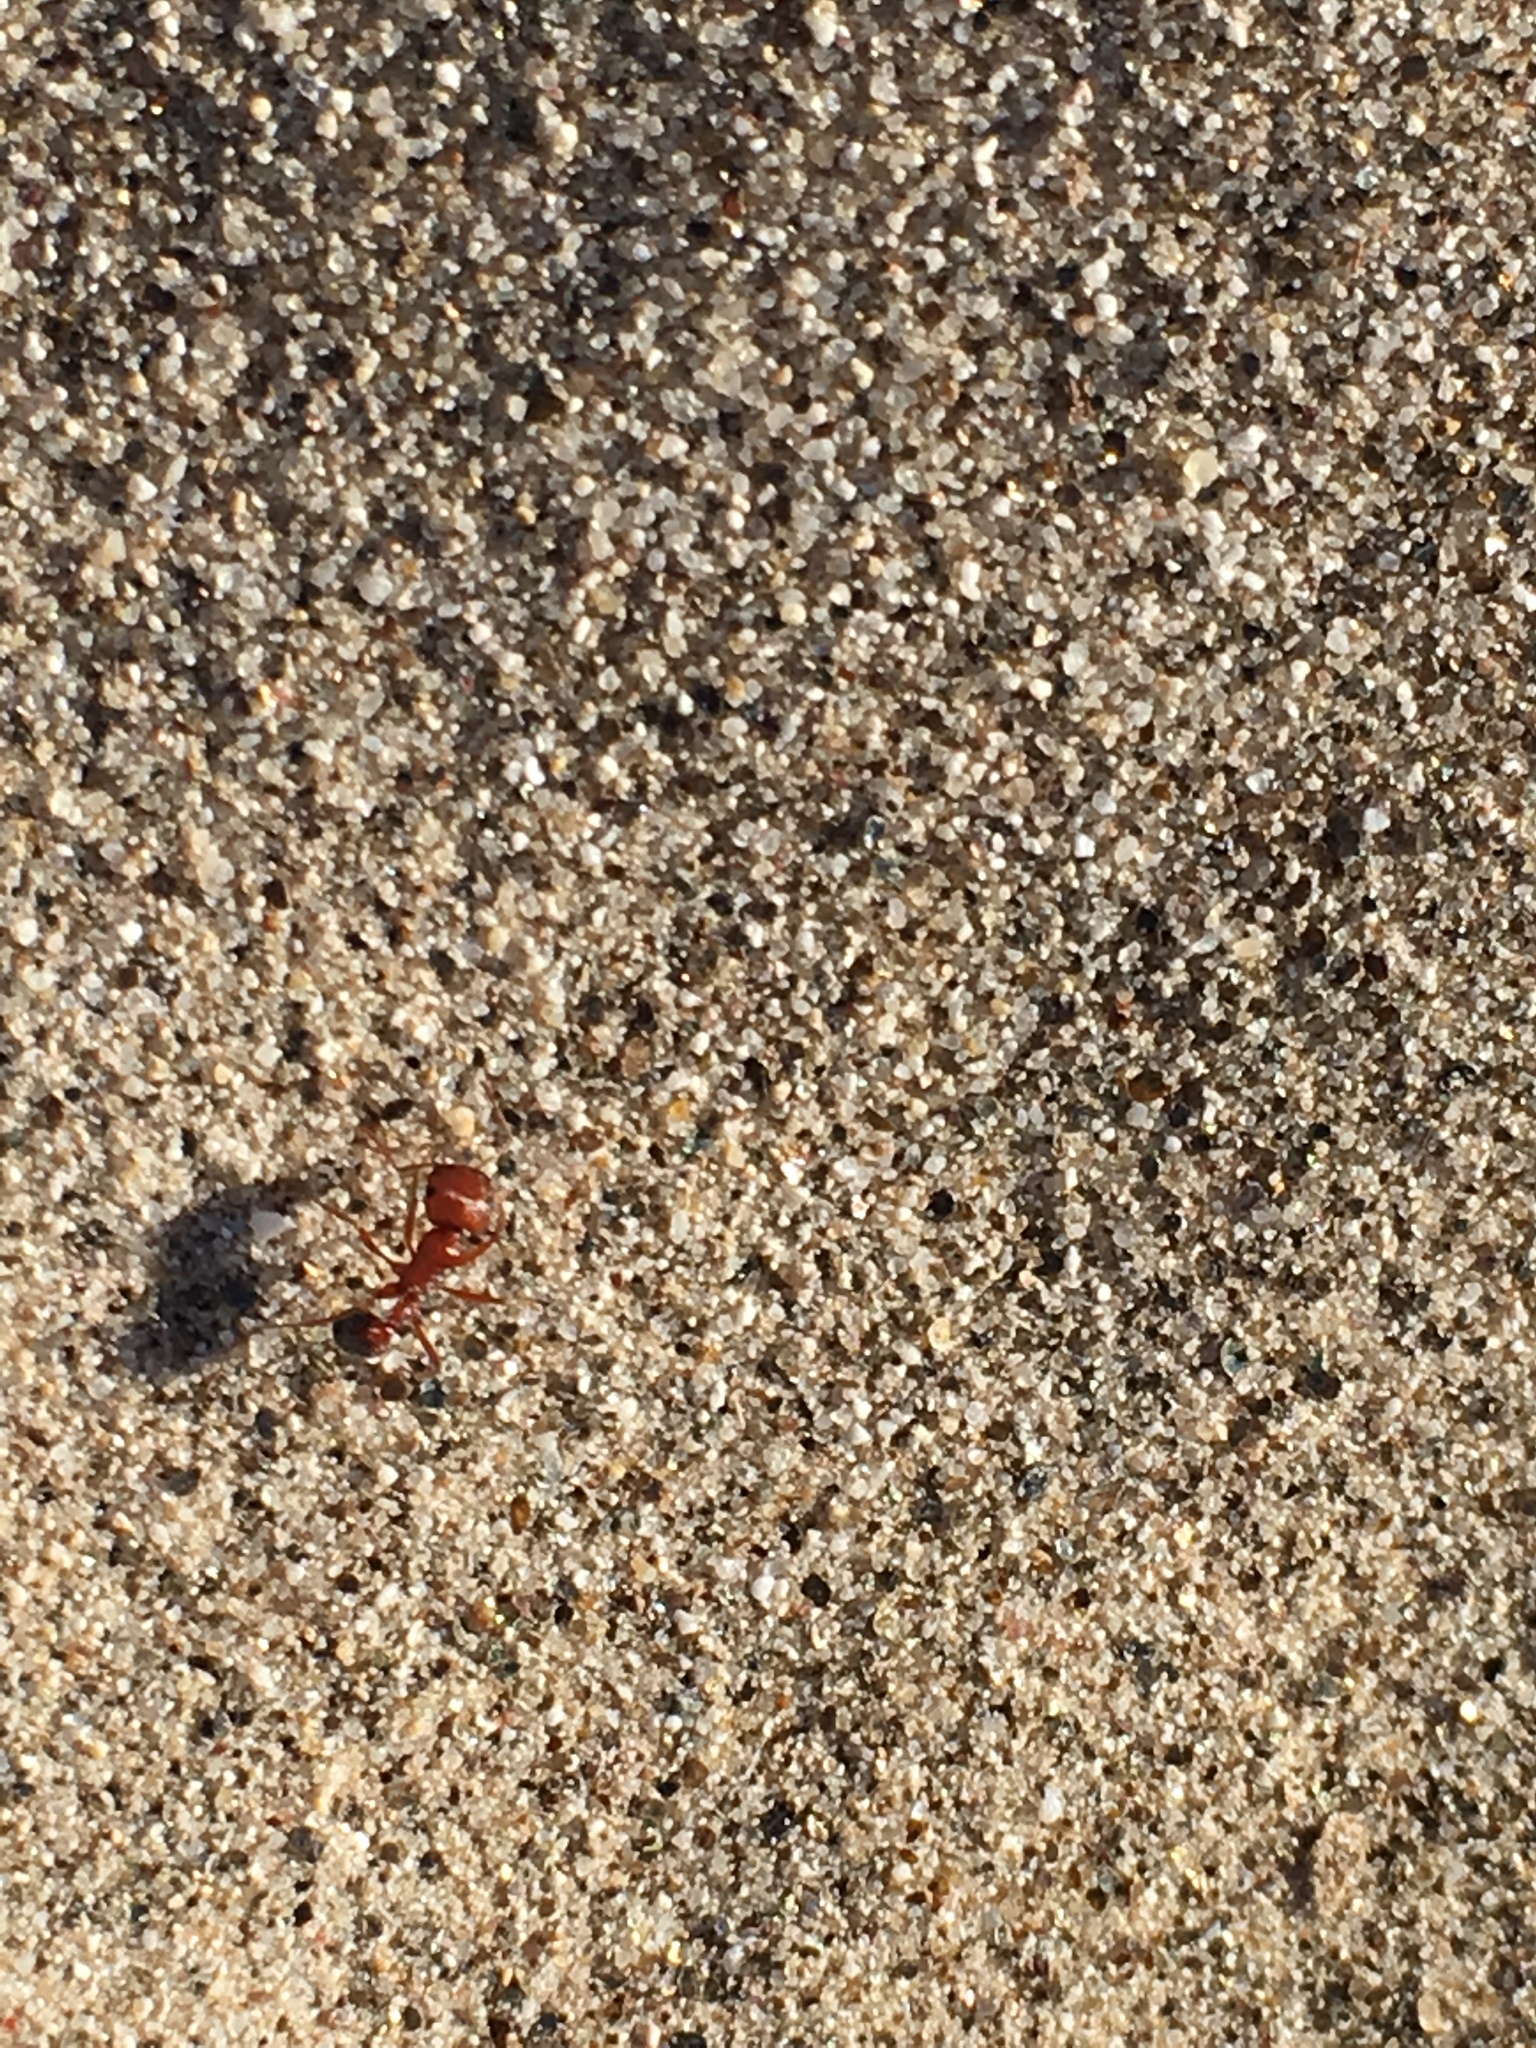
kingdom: Animalia
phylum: Arthropoda
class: Insecta
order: Hymenoptera
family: Formicidae
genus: Pogonomyrmex
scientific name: Pogonomyrmex californicus
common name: California harvester ant
